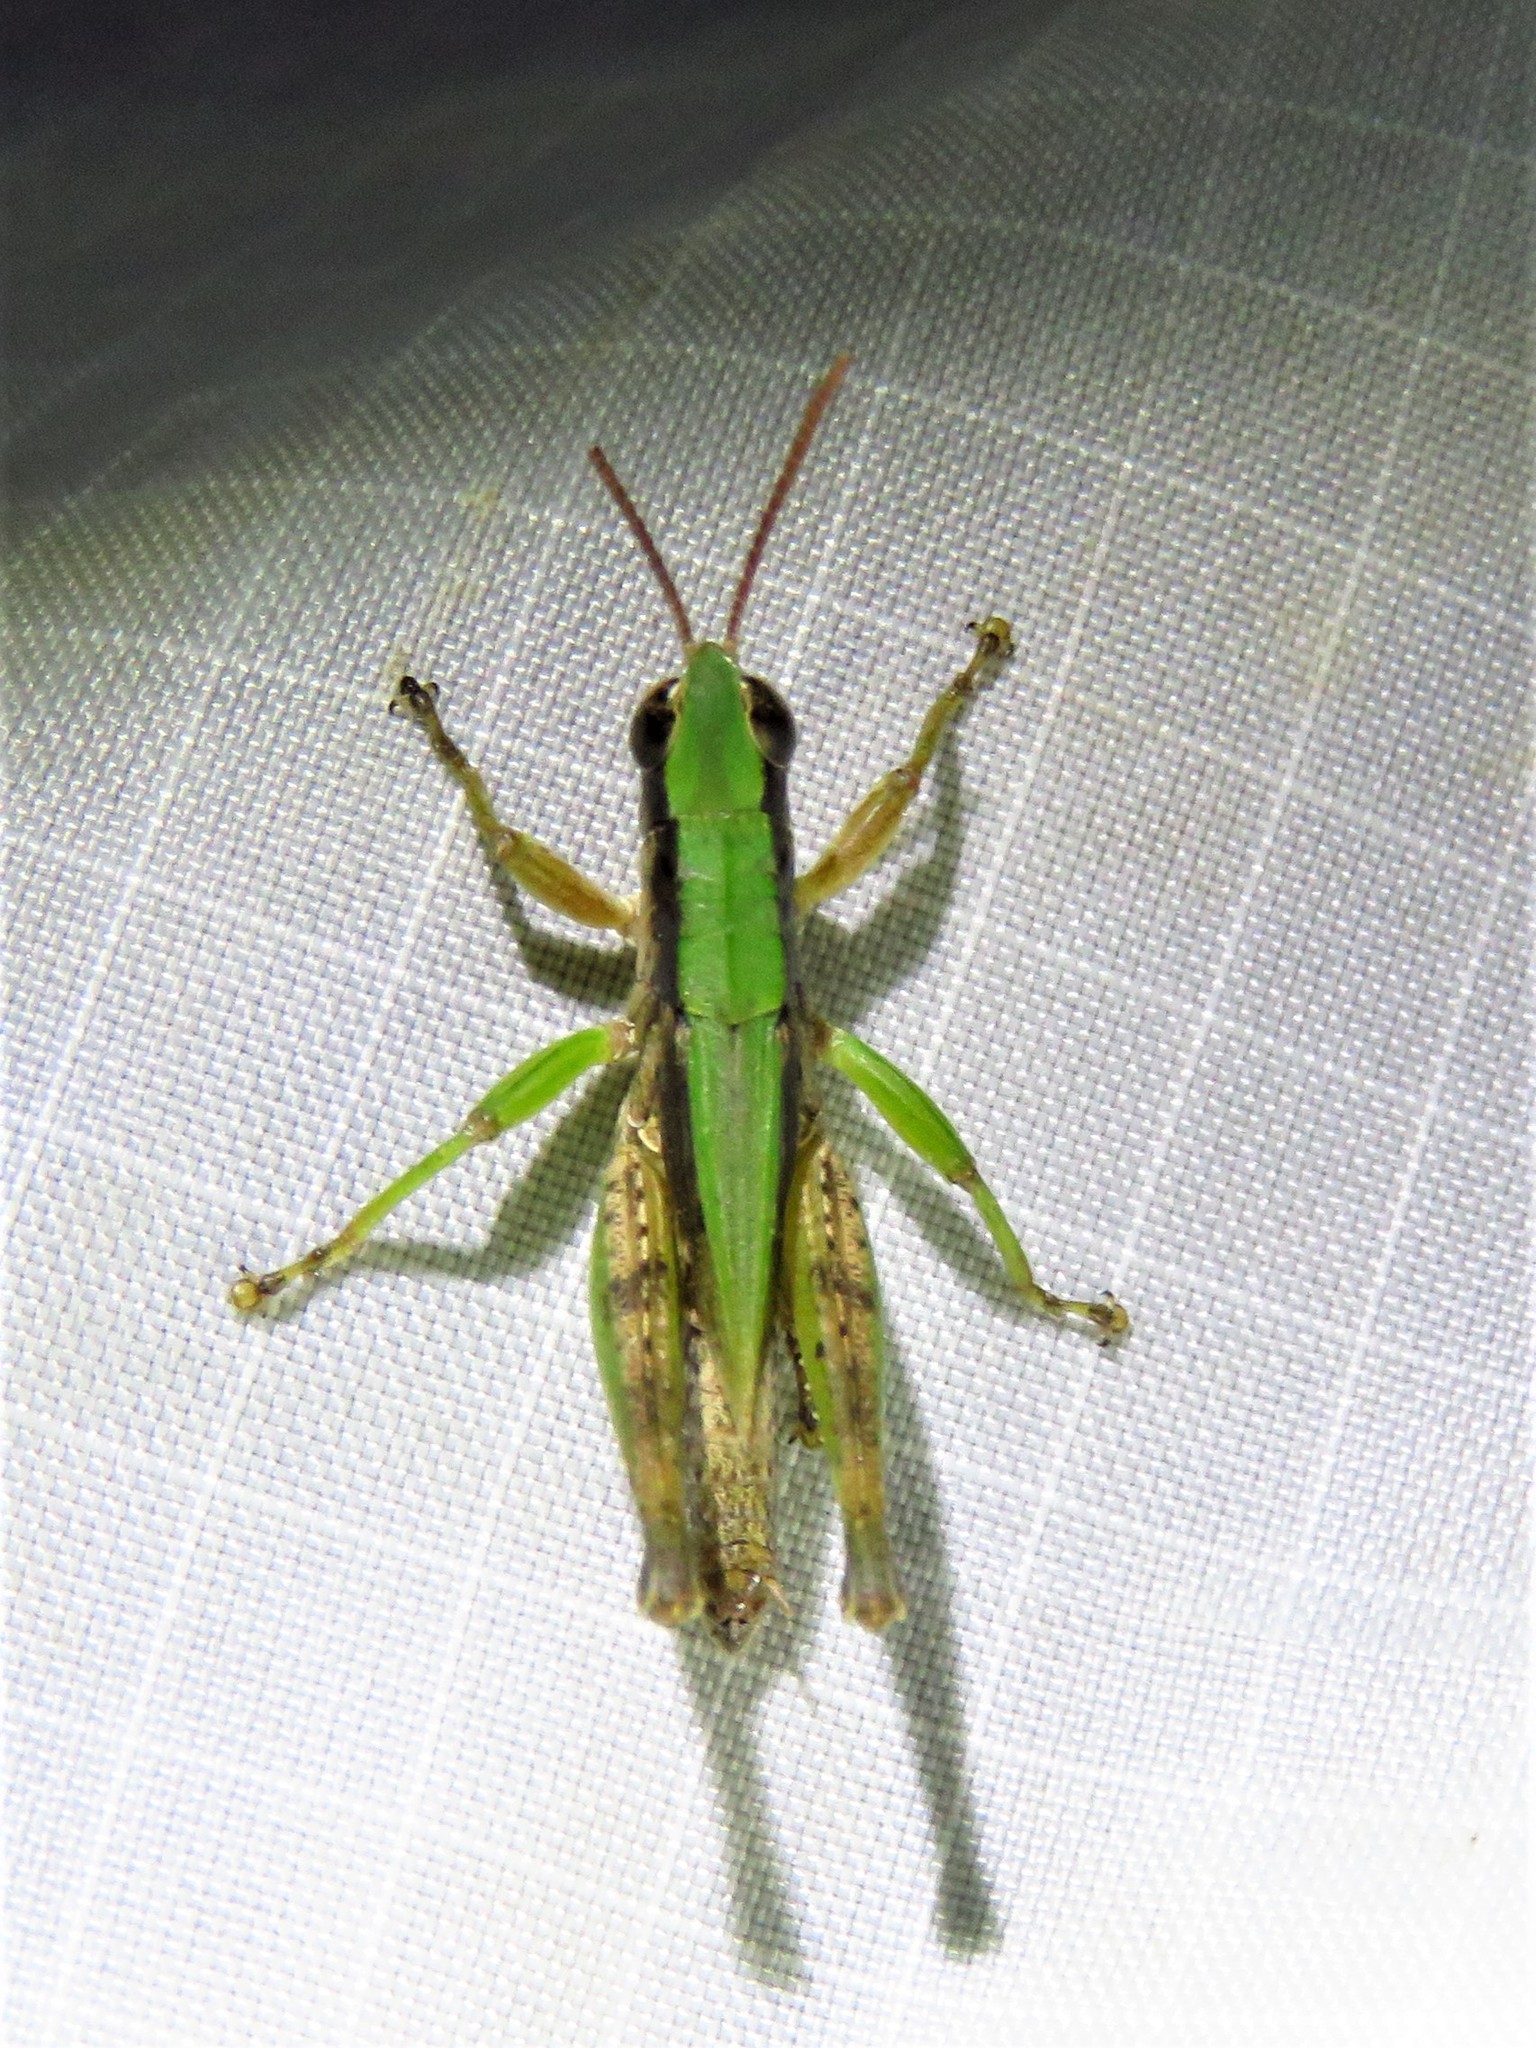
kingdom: Animalia
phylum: Arthropoda
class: Insecta
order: Orthoptera
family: Acrididae
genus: Dichromorpha
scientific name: Dichromorpha viridis
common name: Short-winged green grasshopper
